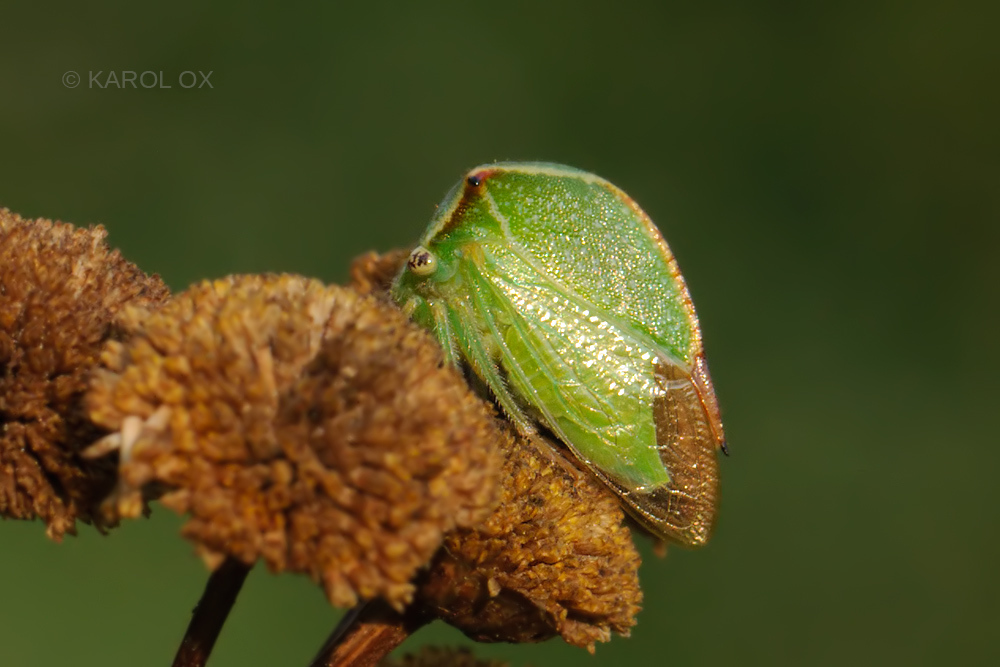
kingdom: Animalia
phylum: Arthropoda
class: Insecta
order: Hemiptera
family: Membracidae
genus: Stictocephala
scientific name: Stictocephala bisonia
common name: American buffalo treehopper
